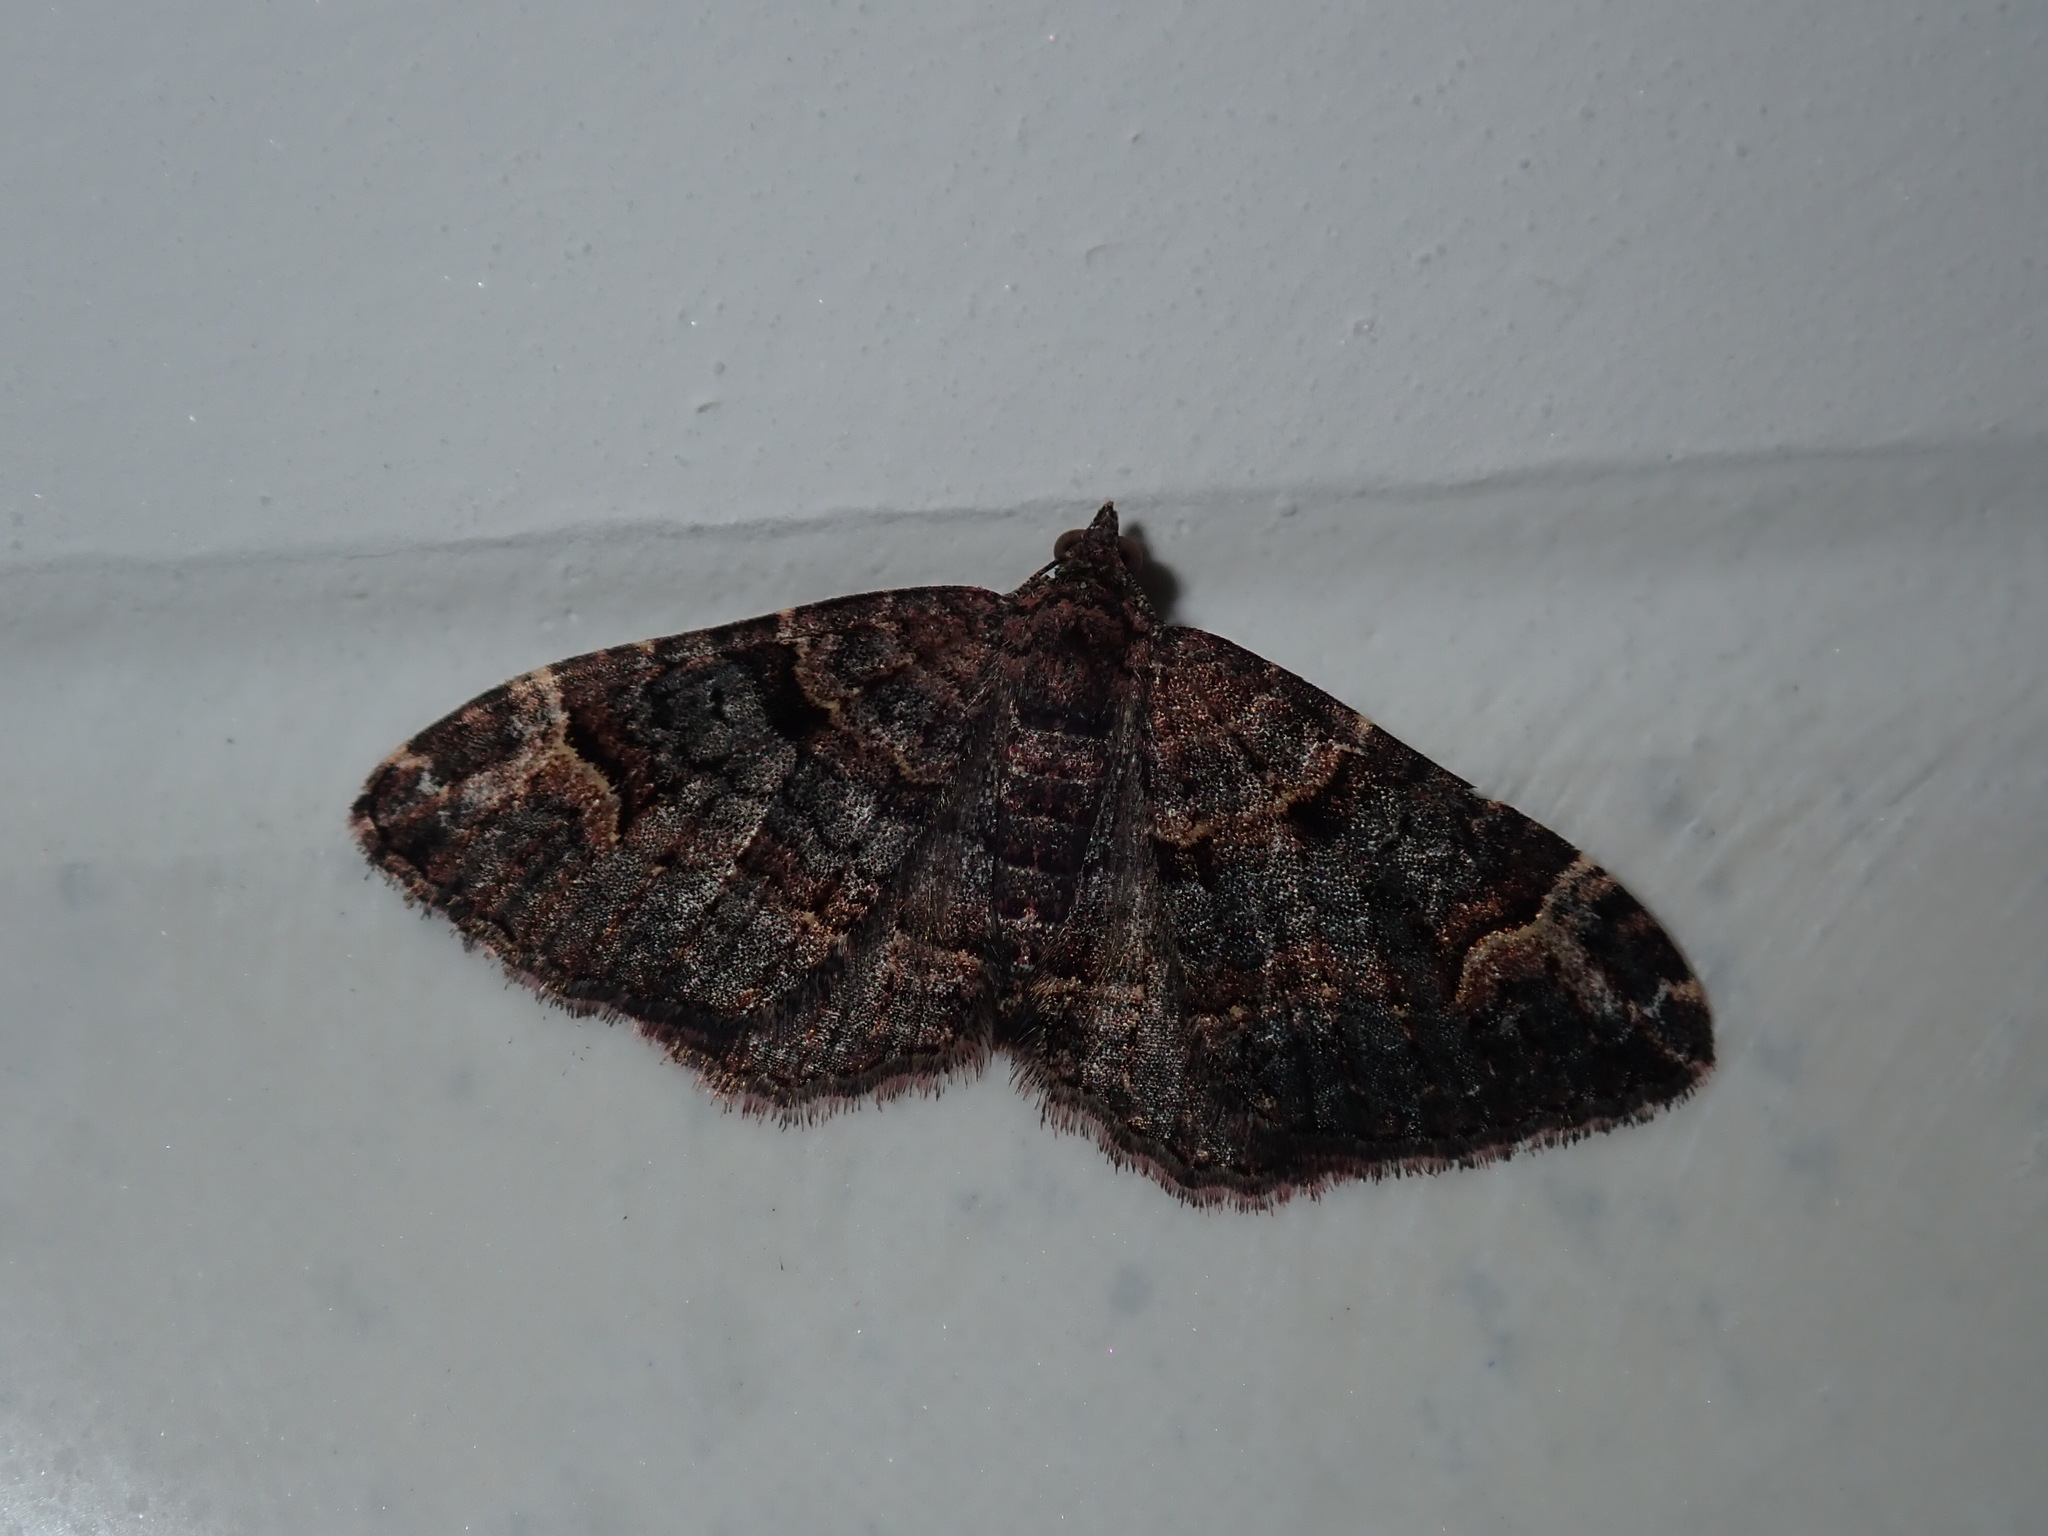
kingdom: Animalia
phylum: Arthropoda
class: Insecta
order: Lepidoptera
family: Geometridae
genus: Epyaxa
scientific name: Epyaxa sodaliata
